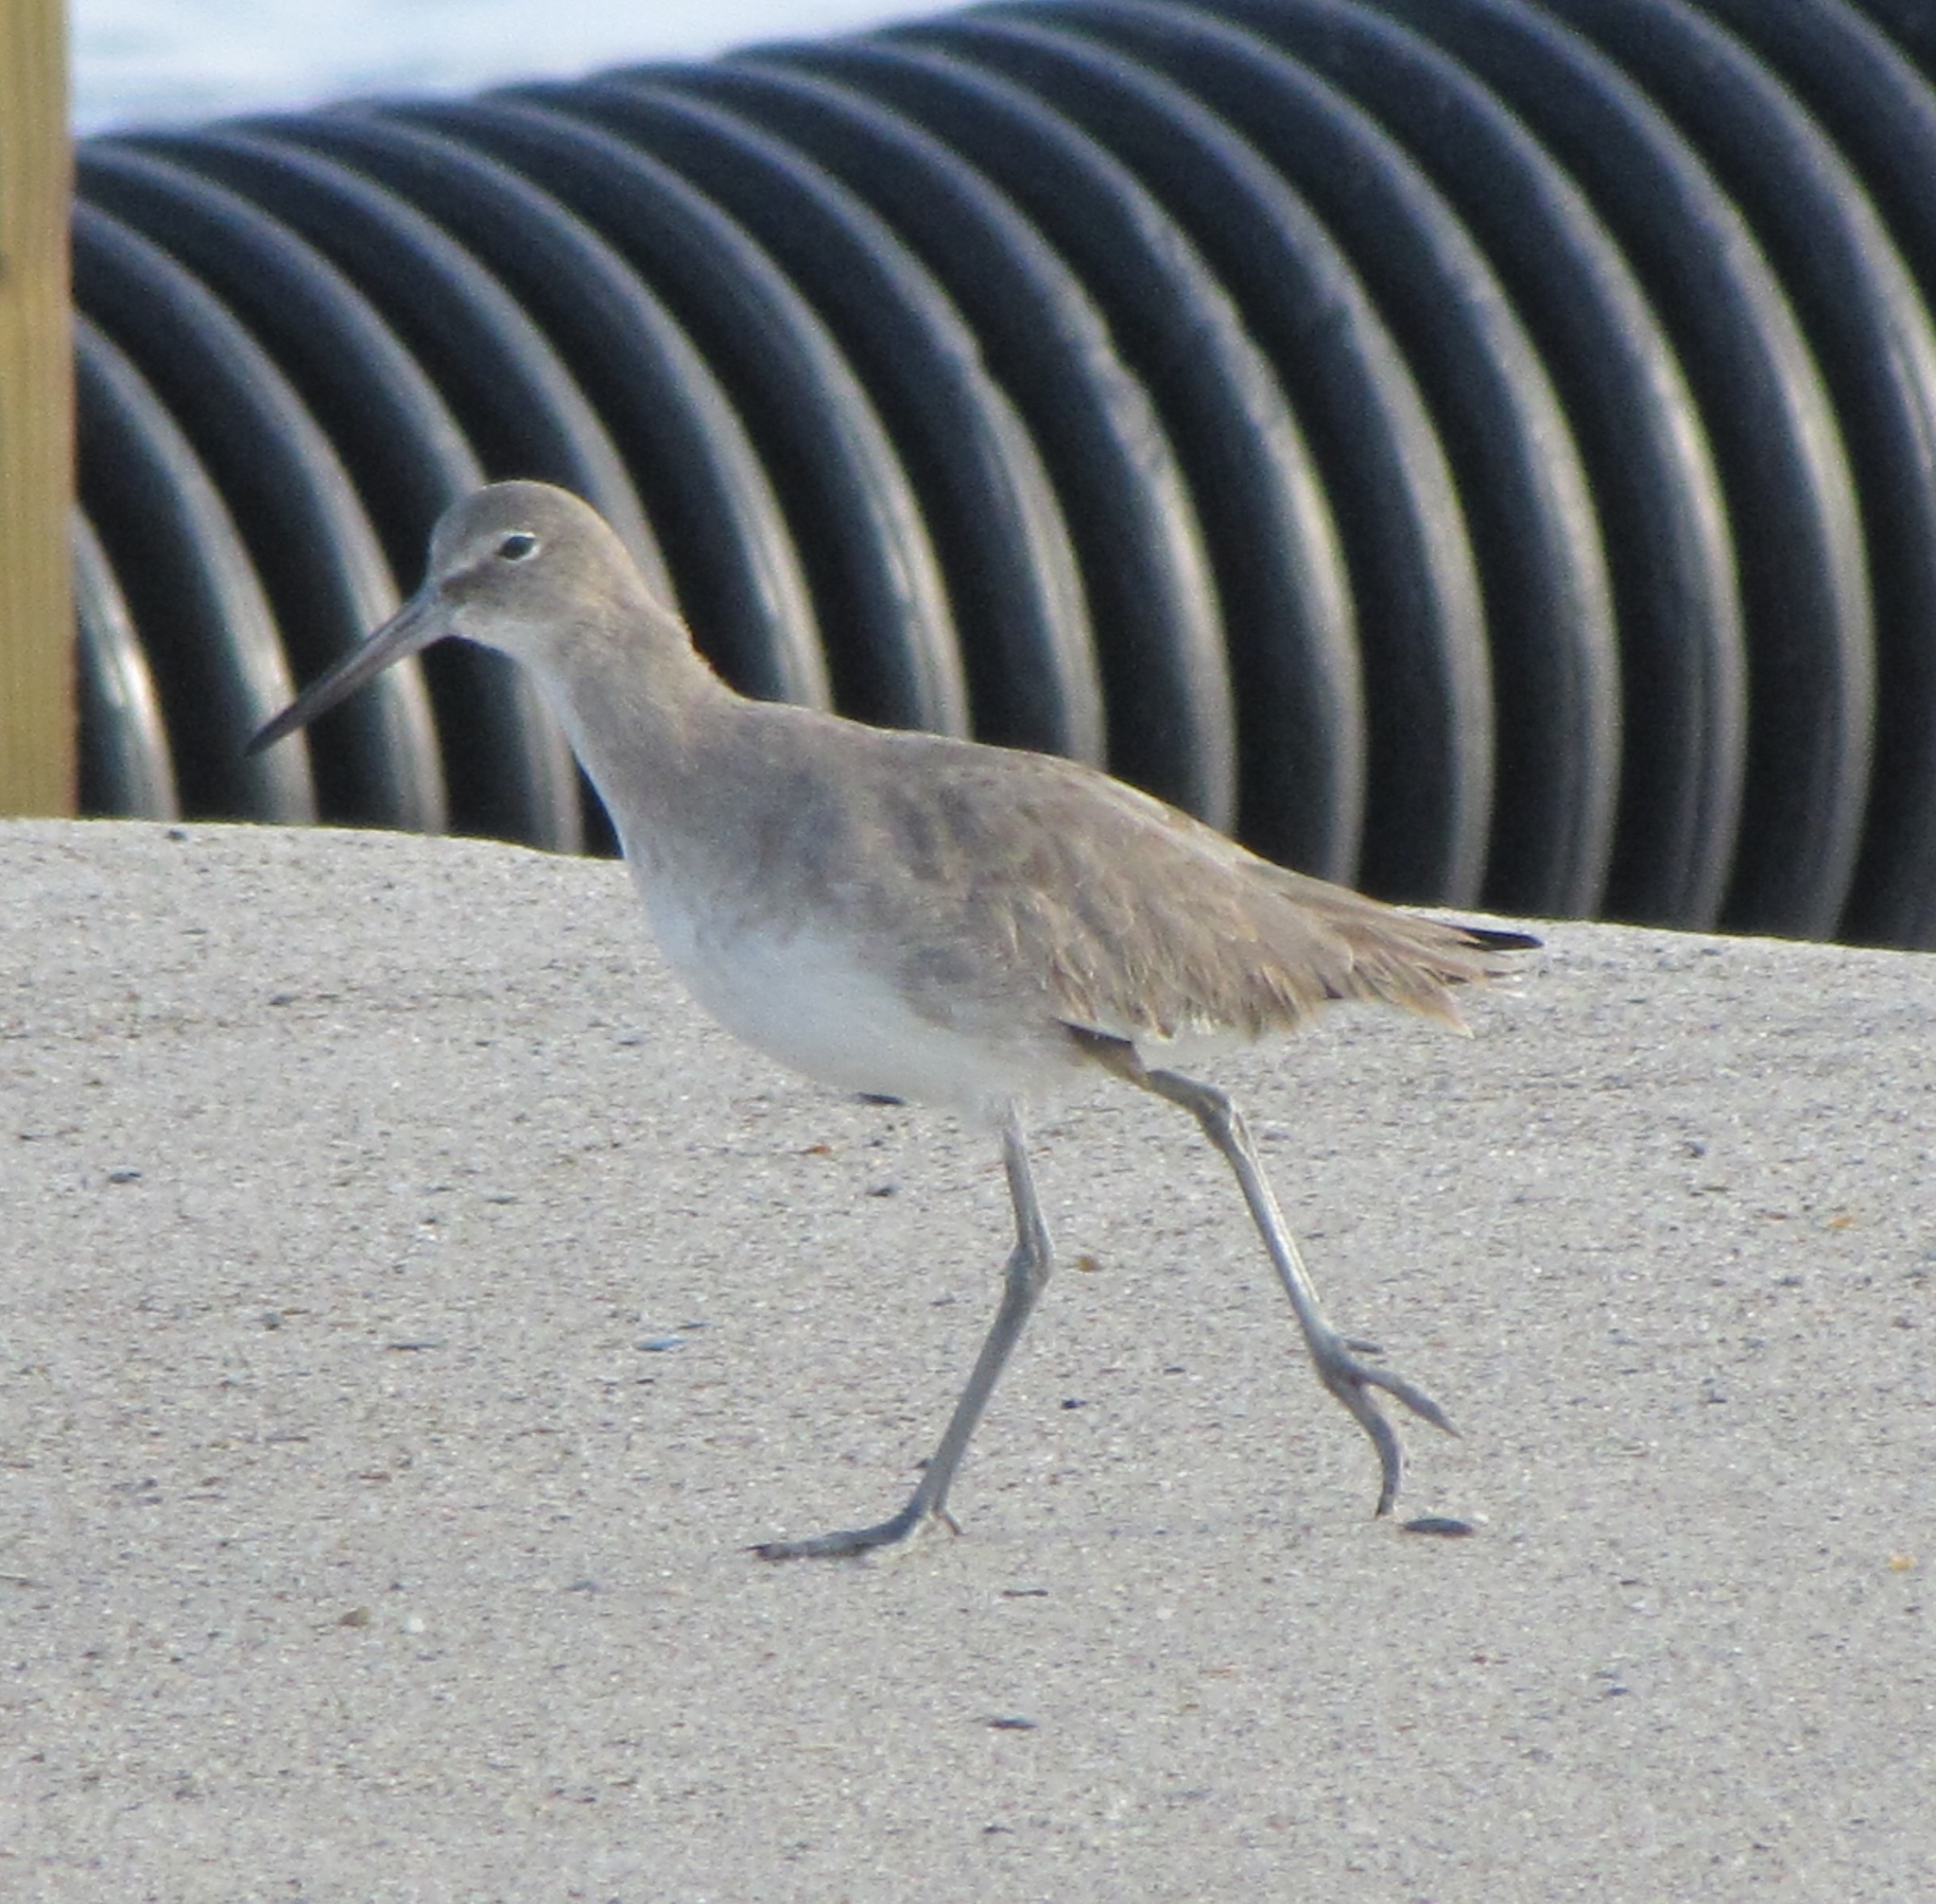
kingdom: Animalia
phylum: Chordata
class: Aves
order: Charadriiformes
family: Scolopacidae
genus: Tringa
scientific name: Tringa semipalmata
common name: Willet
